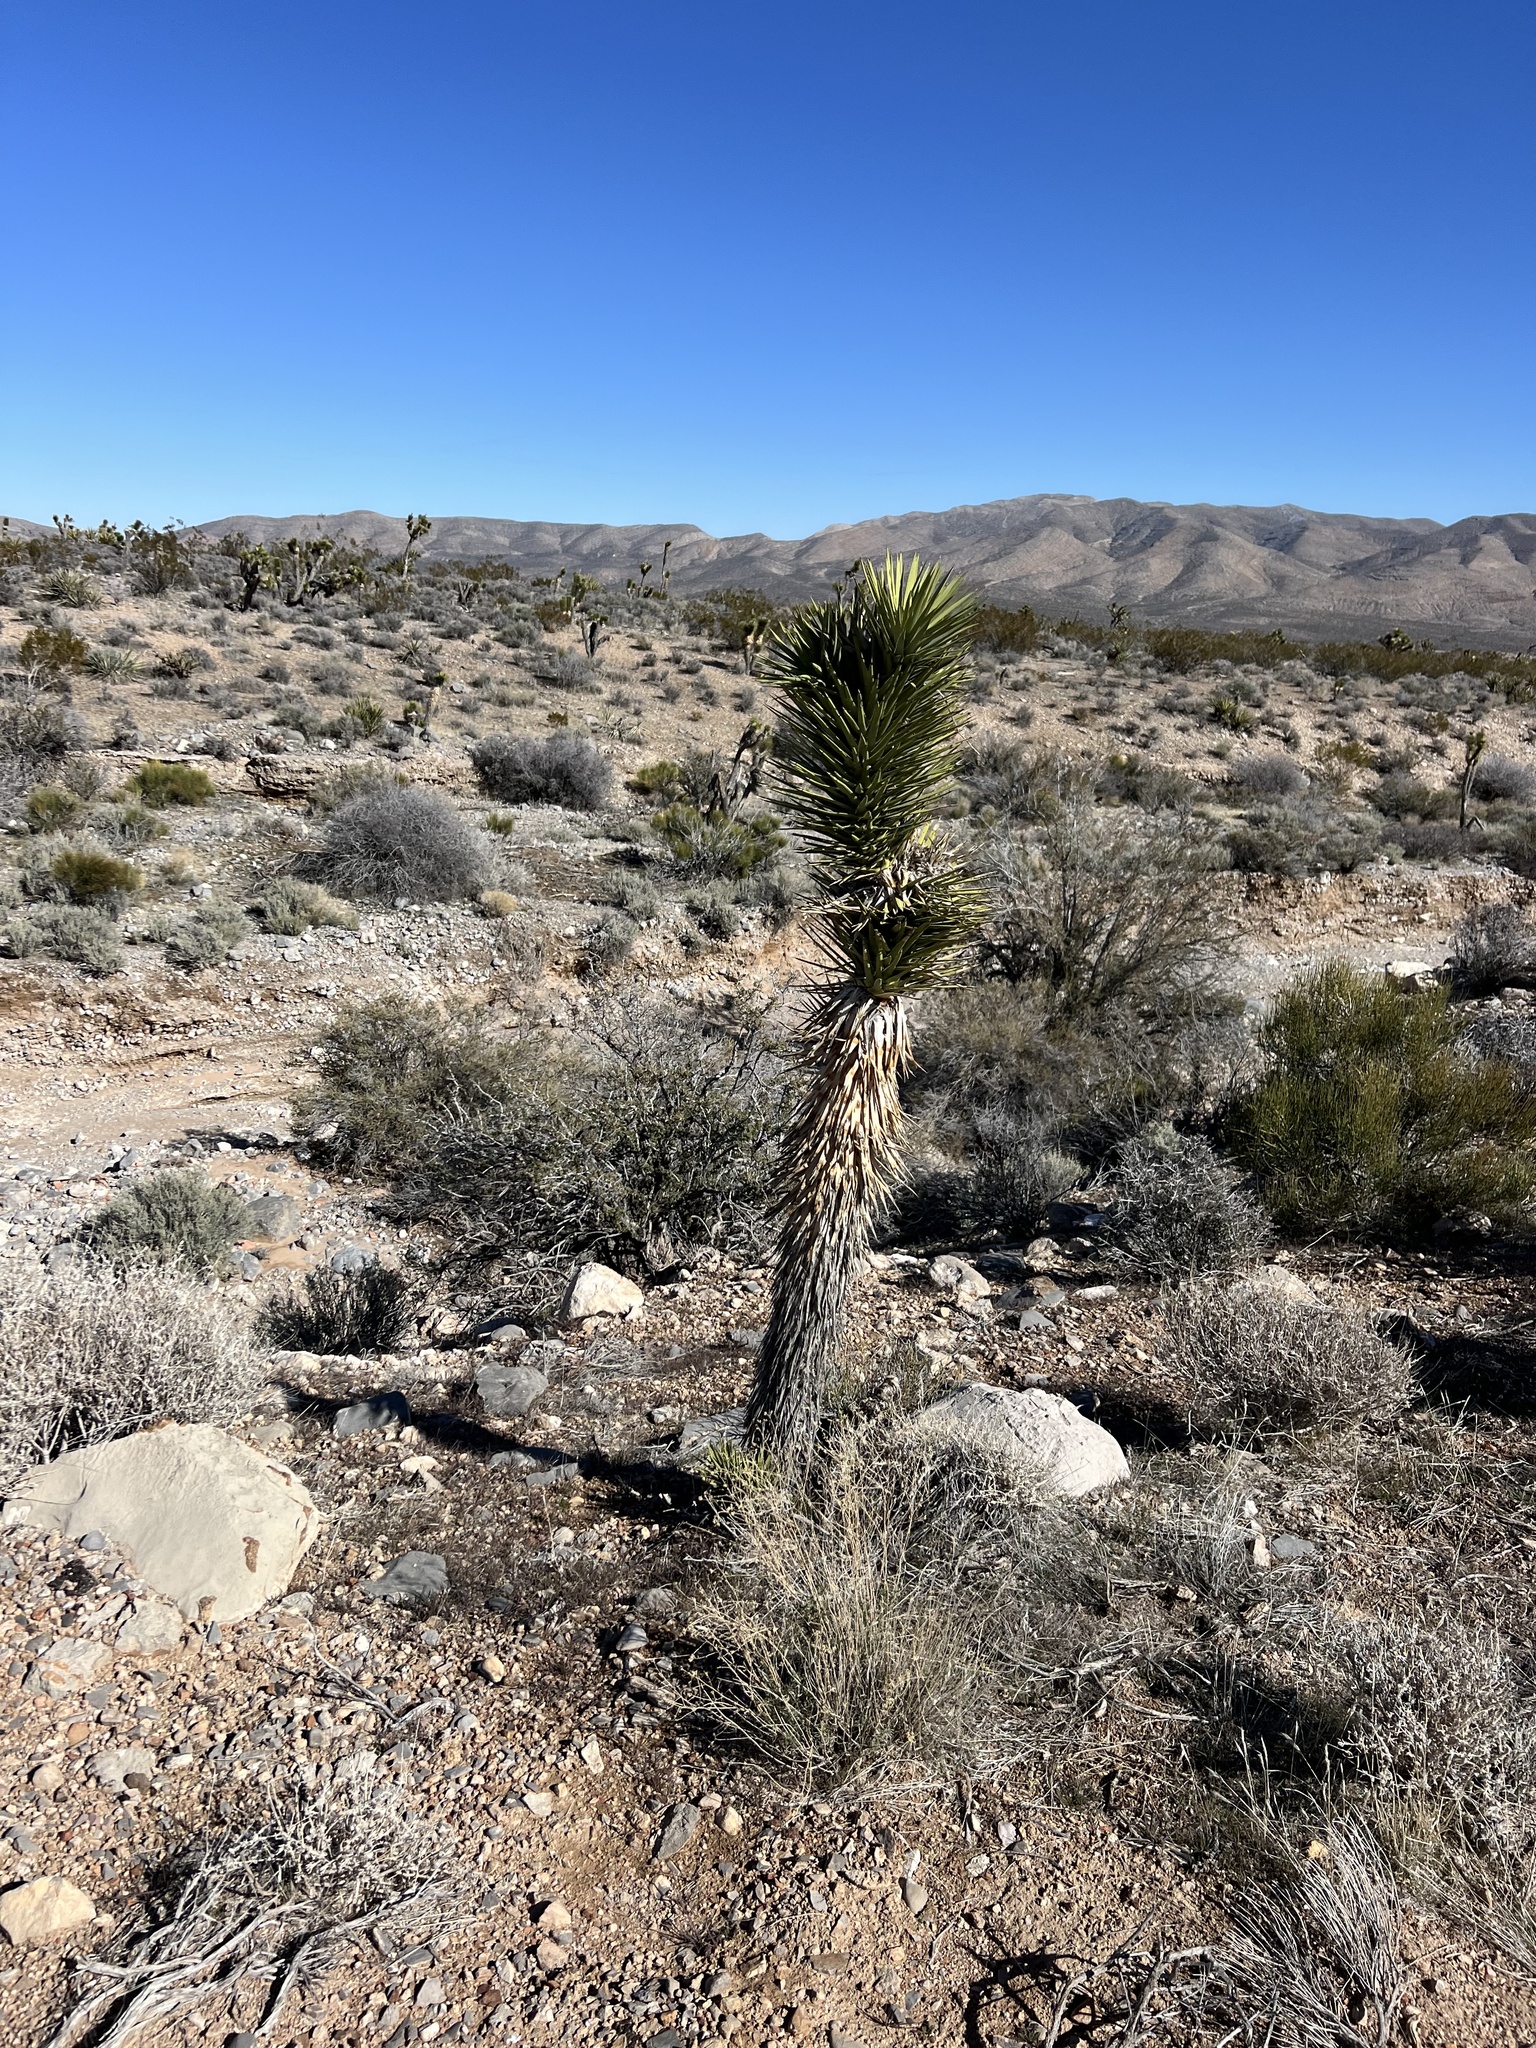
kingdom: Plantae
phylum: Tracheophyta
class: Liliopsida
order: Asparagales
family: Asparagaceae
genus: Yucca
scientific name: Yucca brevifolia
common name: Joshua tree
